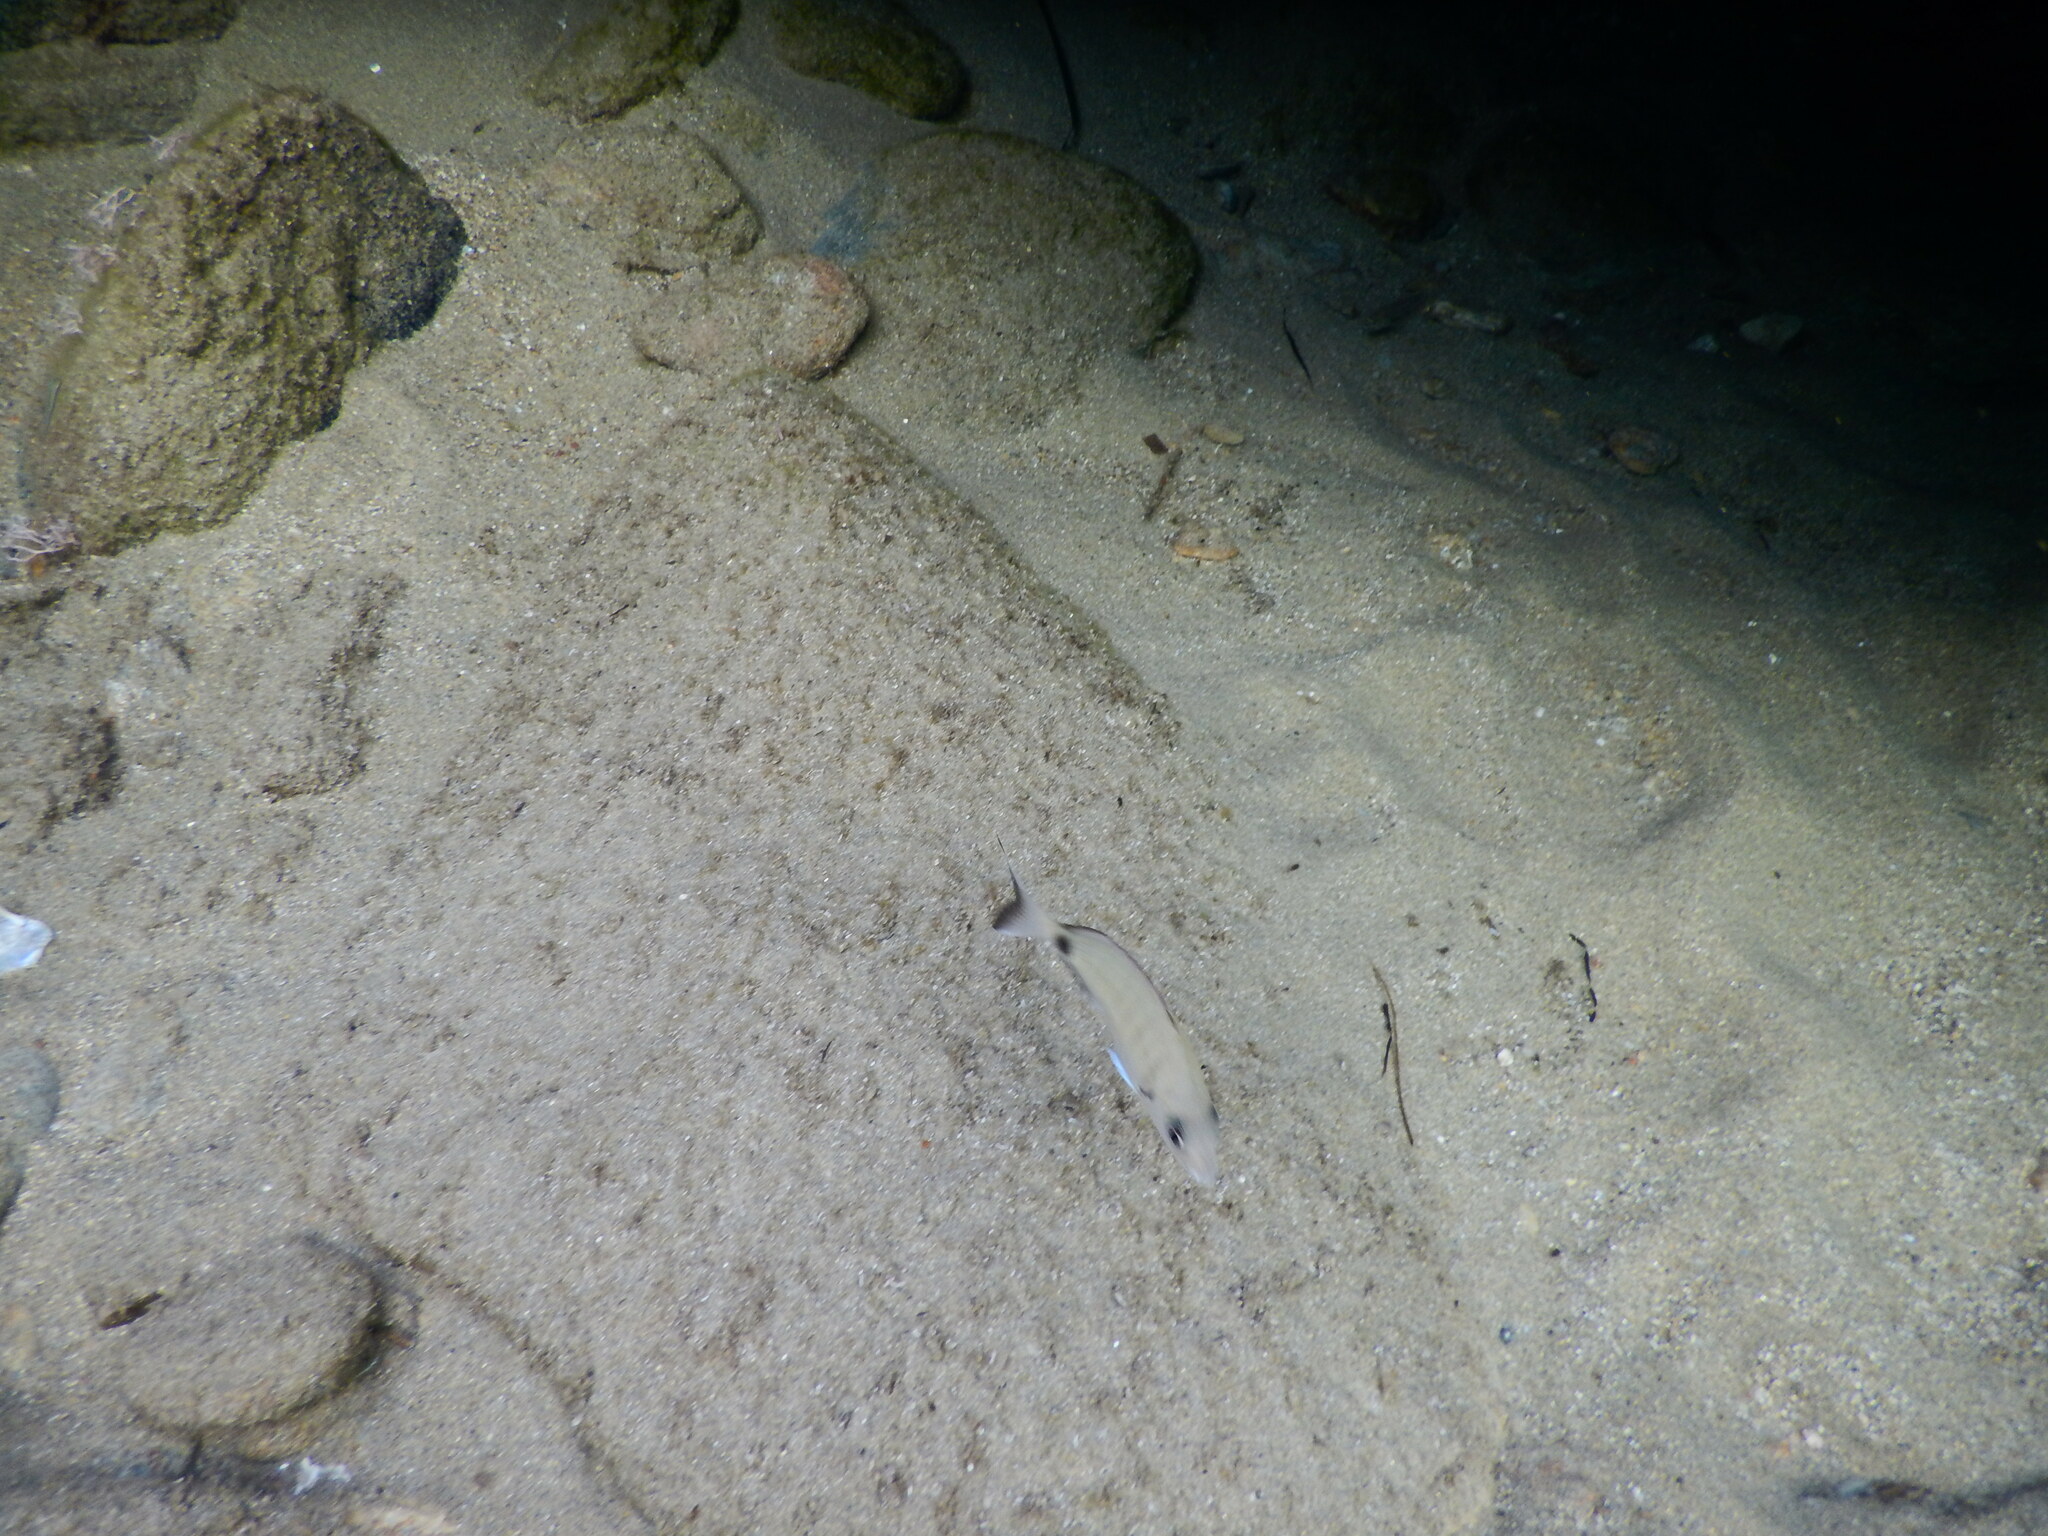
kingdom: Animalia
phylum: Chordata
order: Perciformes
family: Sparidae
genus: Diplodus
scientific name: Diplodus sargus
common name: White seabream
